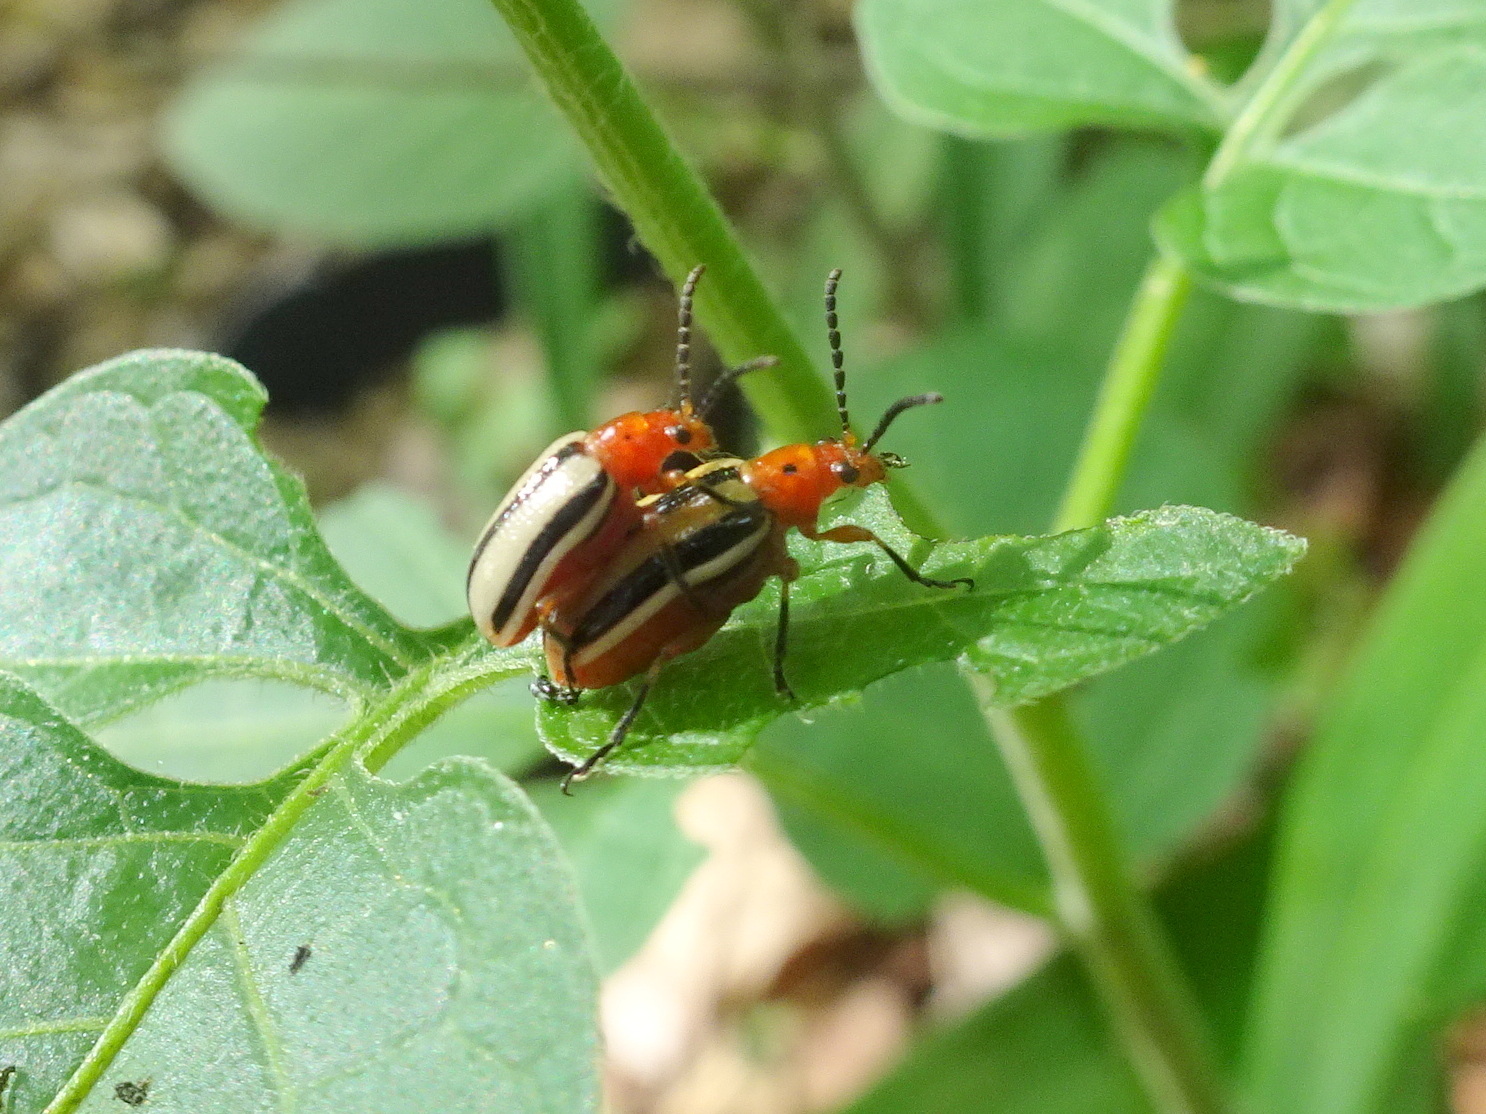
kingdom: Animalia
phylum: Arthropoda
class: Insecta
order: Coleoptera
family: Chrysomelidae
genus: Lema
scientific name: Lema daturaphila
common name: Leaf beetle
